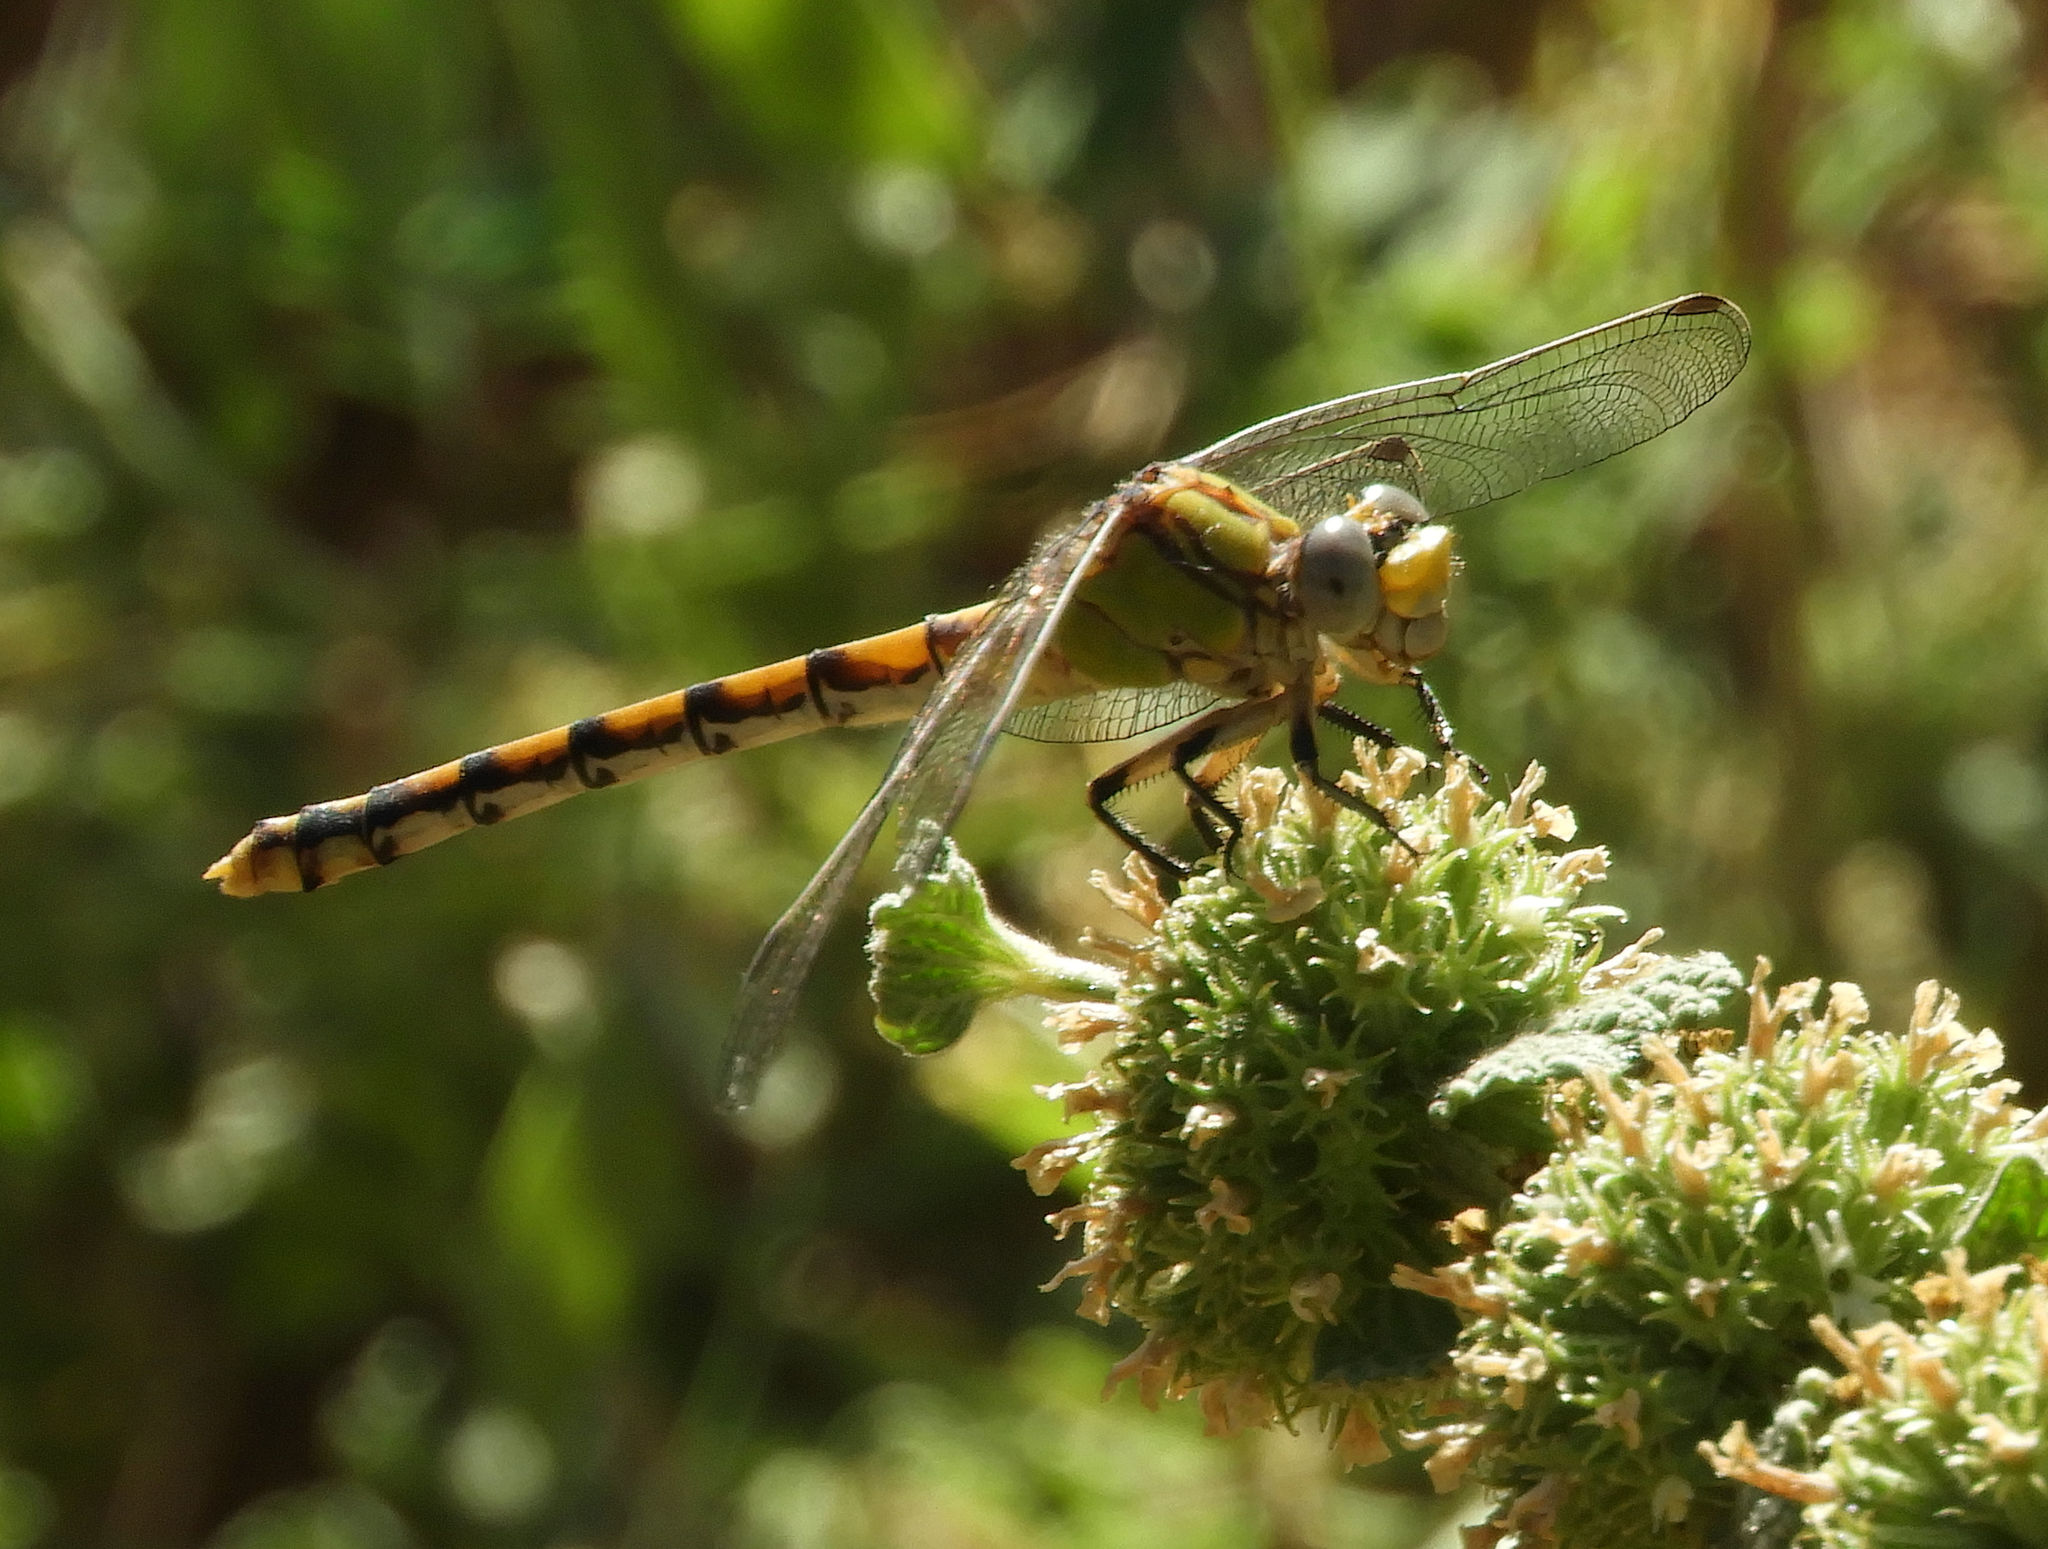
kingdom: Animalia
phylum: Arthropoda
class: Insecta
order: Odonata
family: Gomphidae
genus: Ophiogomphus
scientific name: Ophiogomphus occidentis
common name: Sinuous snaketail
